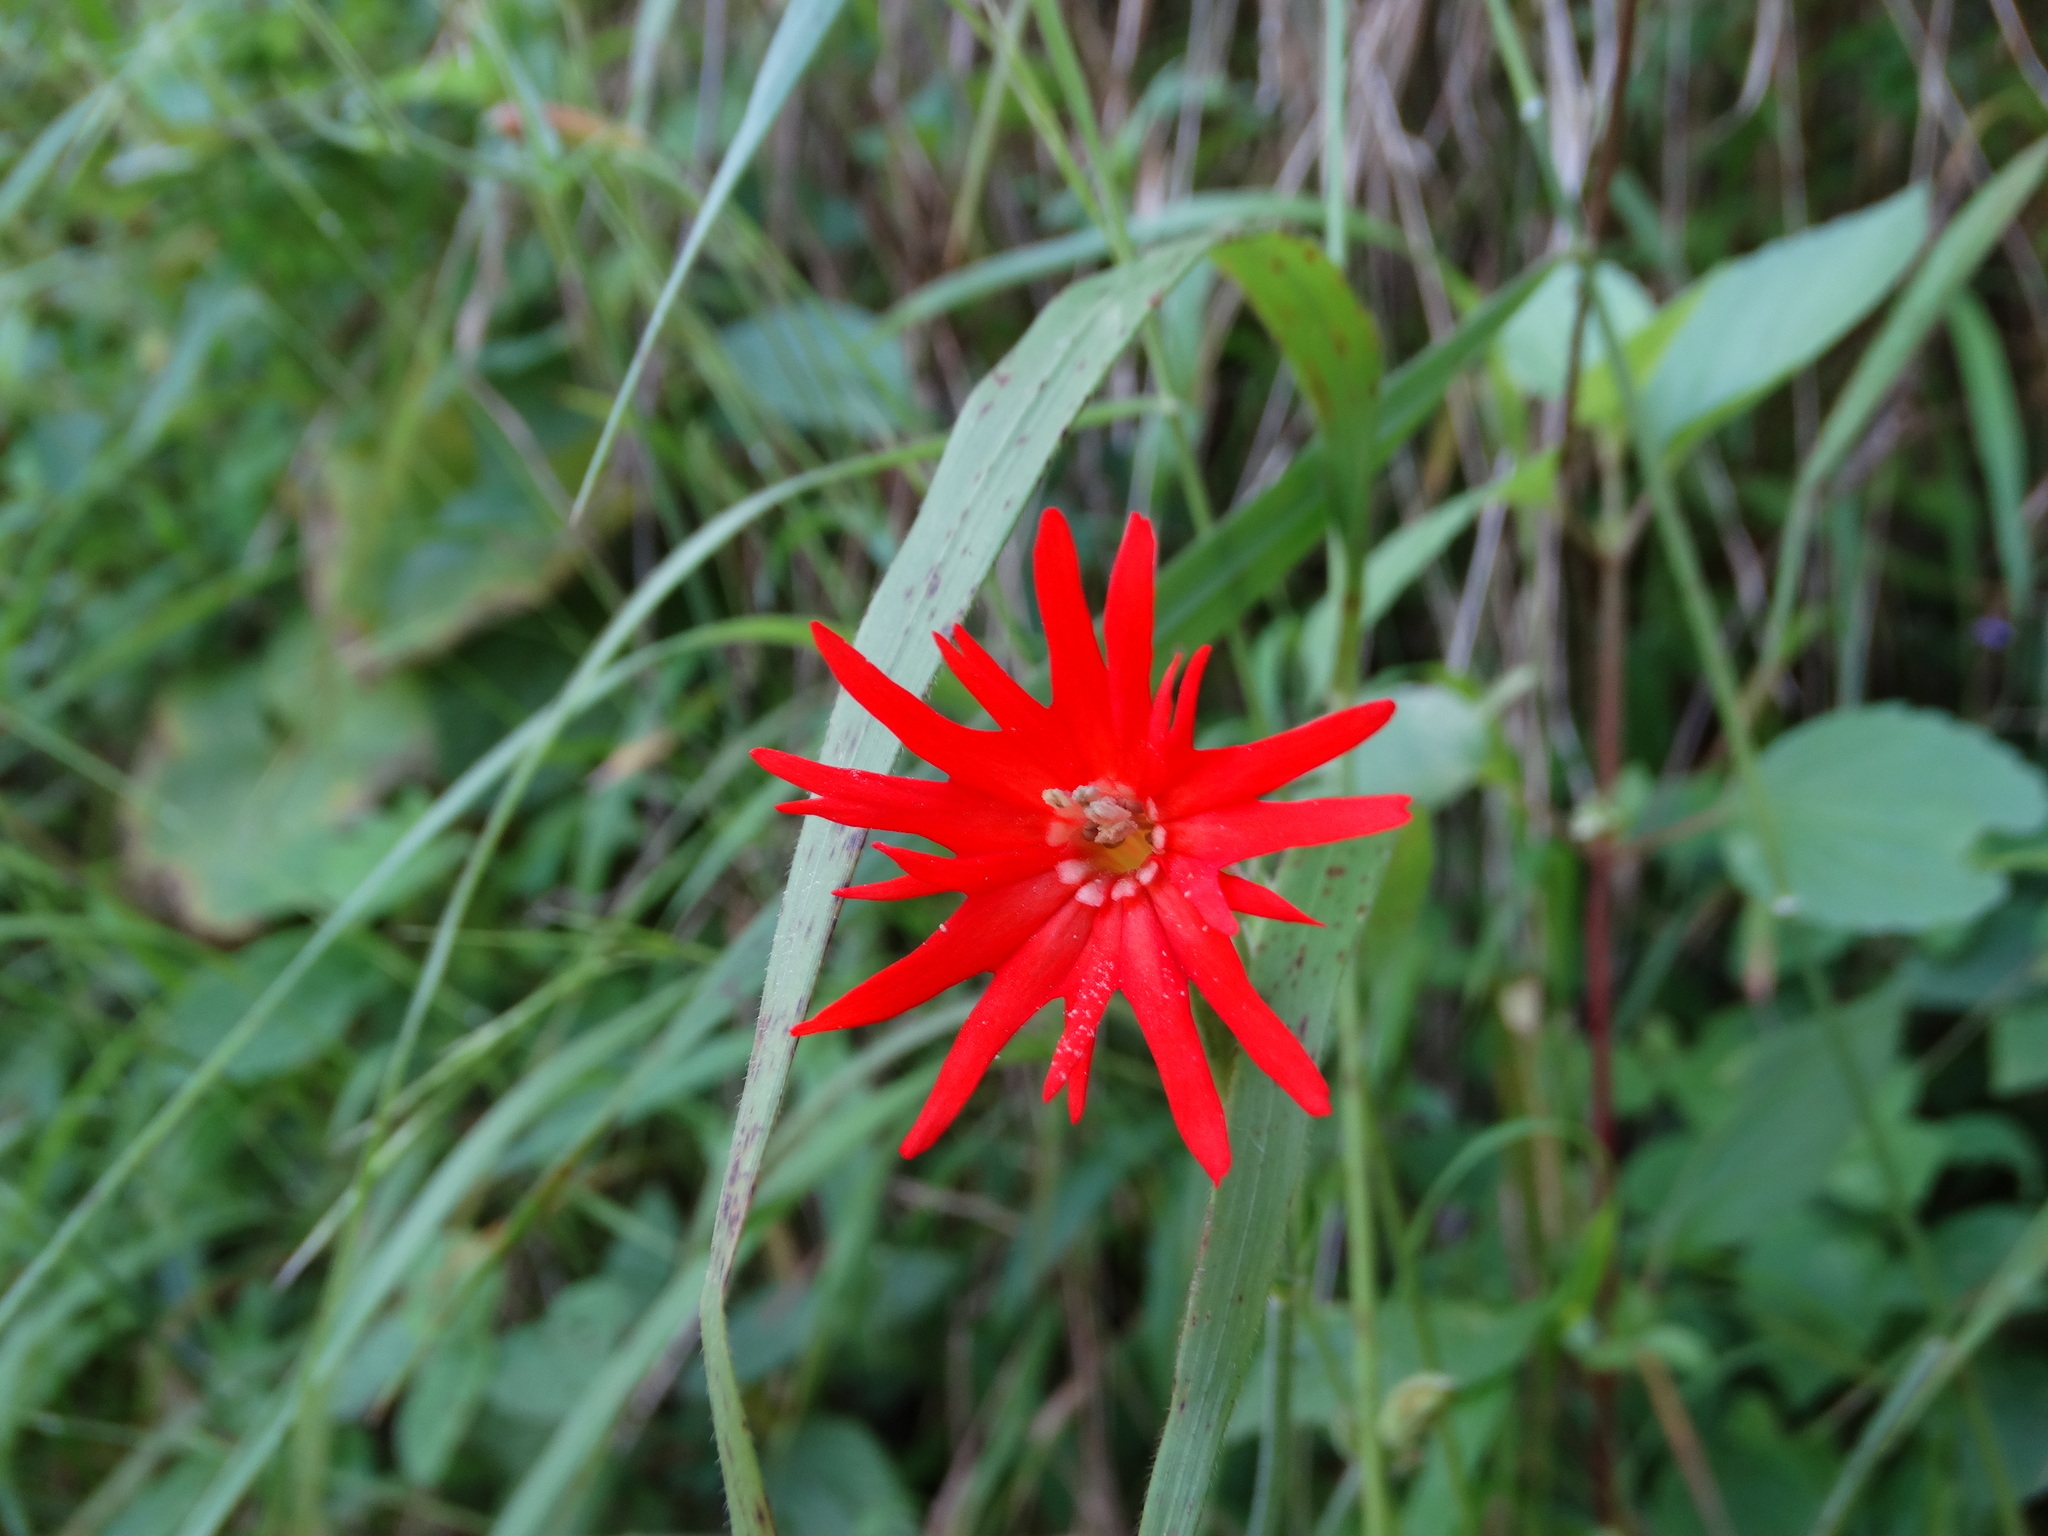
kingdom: Plantae
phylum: Tracheophyta
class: Magnoliopsida
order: Caryophyllales
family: Caryophyllaceae
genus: Silene
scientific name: Silene laciniata
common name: Indian-pink
